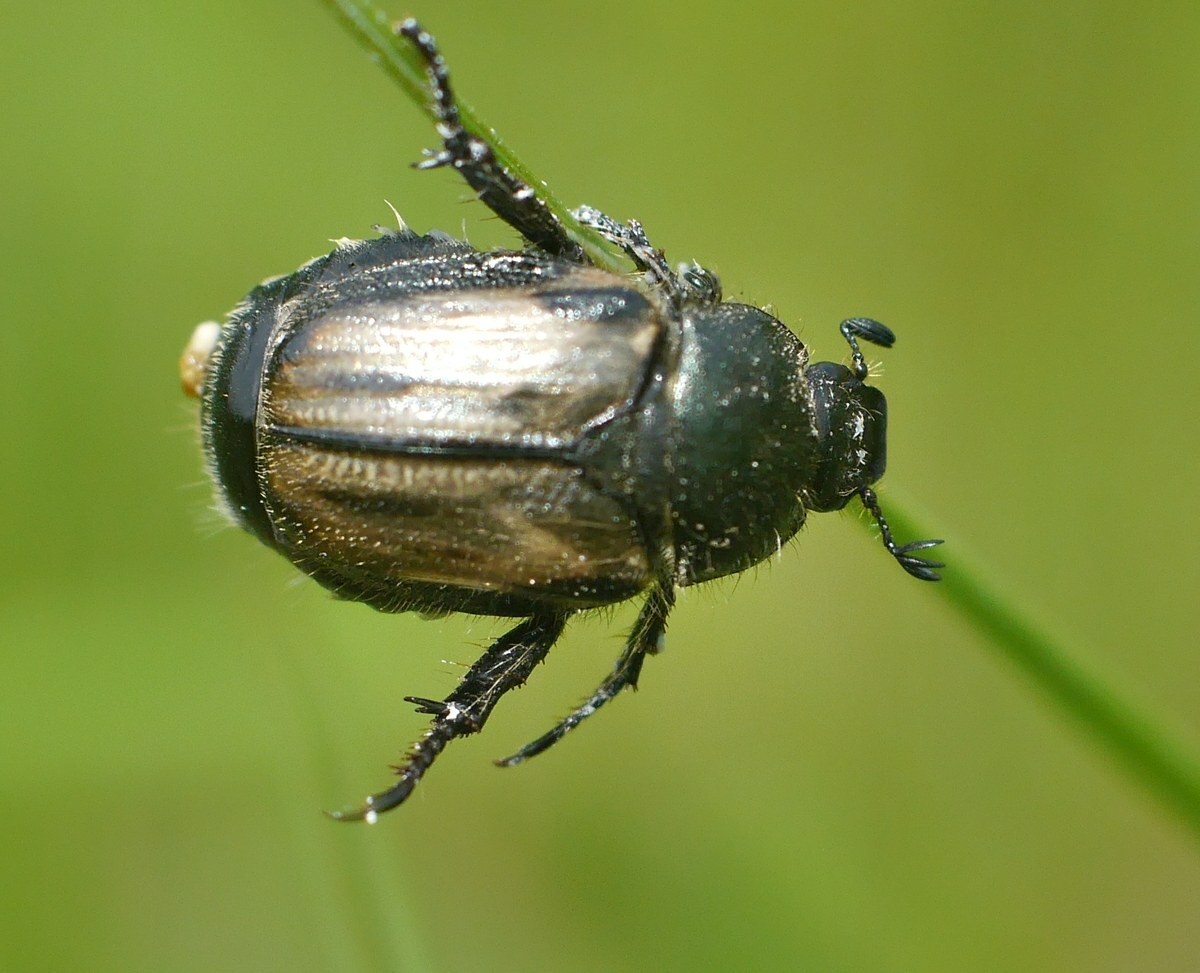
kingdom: Animalia
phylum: Arthropoda
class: Insecta
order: Coleoptera
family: Scarabaeidae
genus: Blitopertha
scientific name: Blitopertha lineolata
